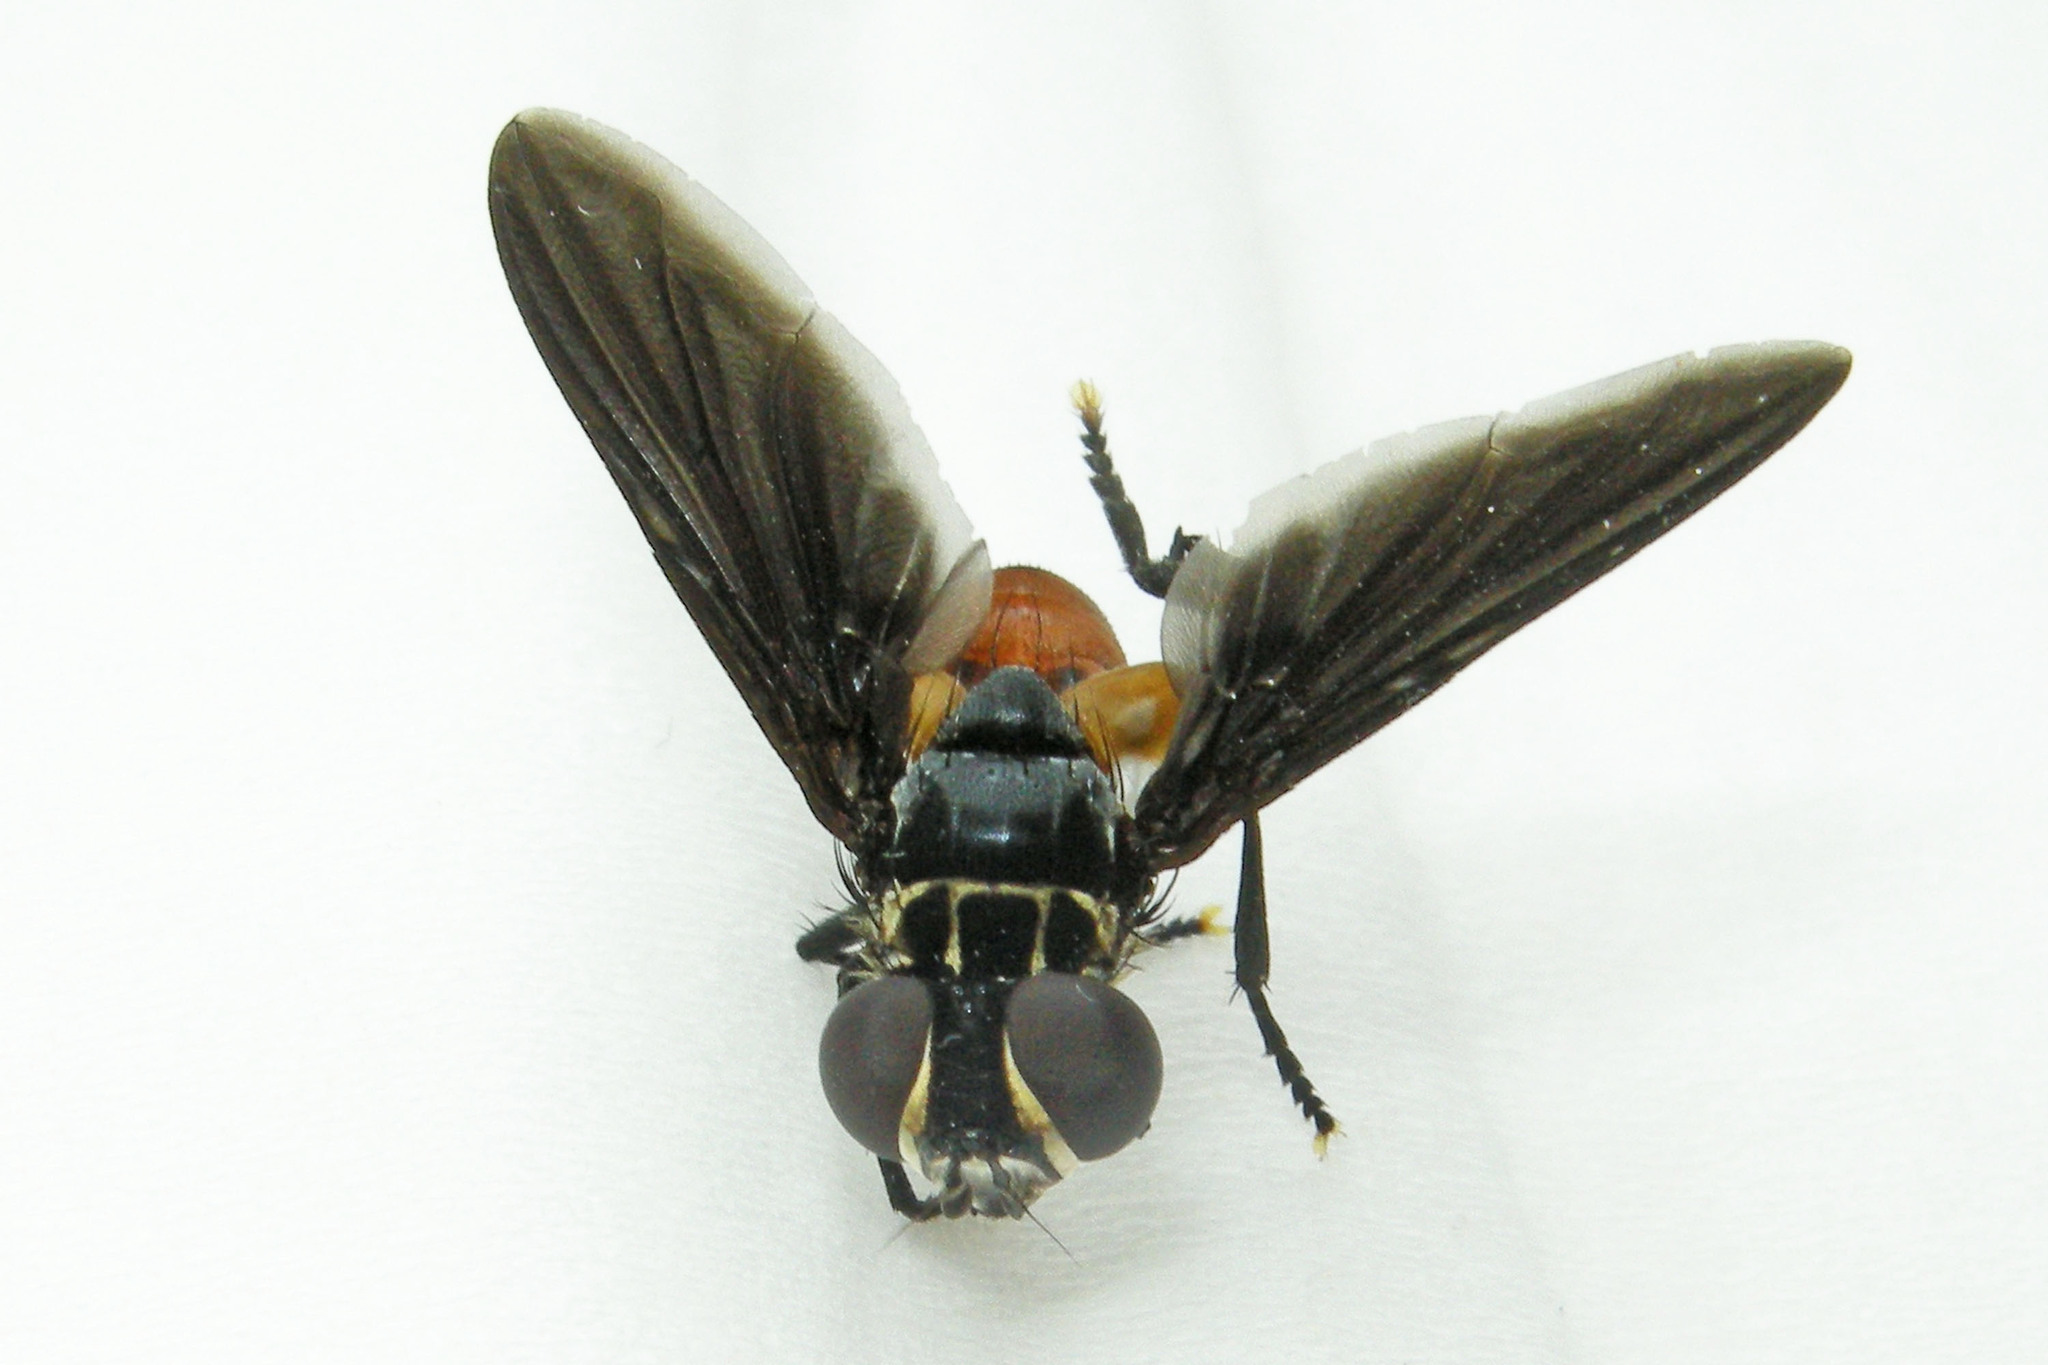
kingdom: Animalia
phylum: Arthropoda
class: Insecta
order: Diptera
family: Tachinidae
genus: Trichopoda
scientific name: Trichopoda pennipes
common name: Tachinid fly
